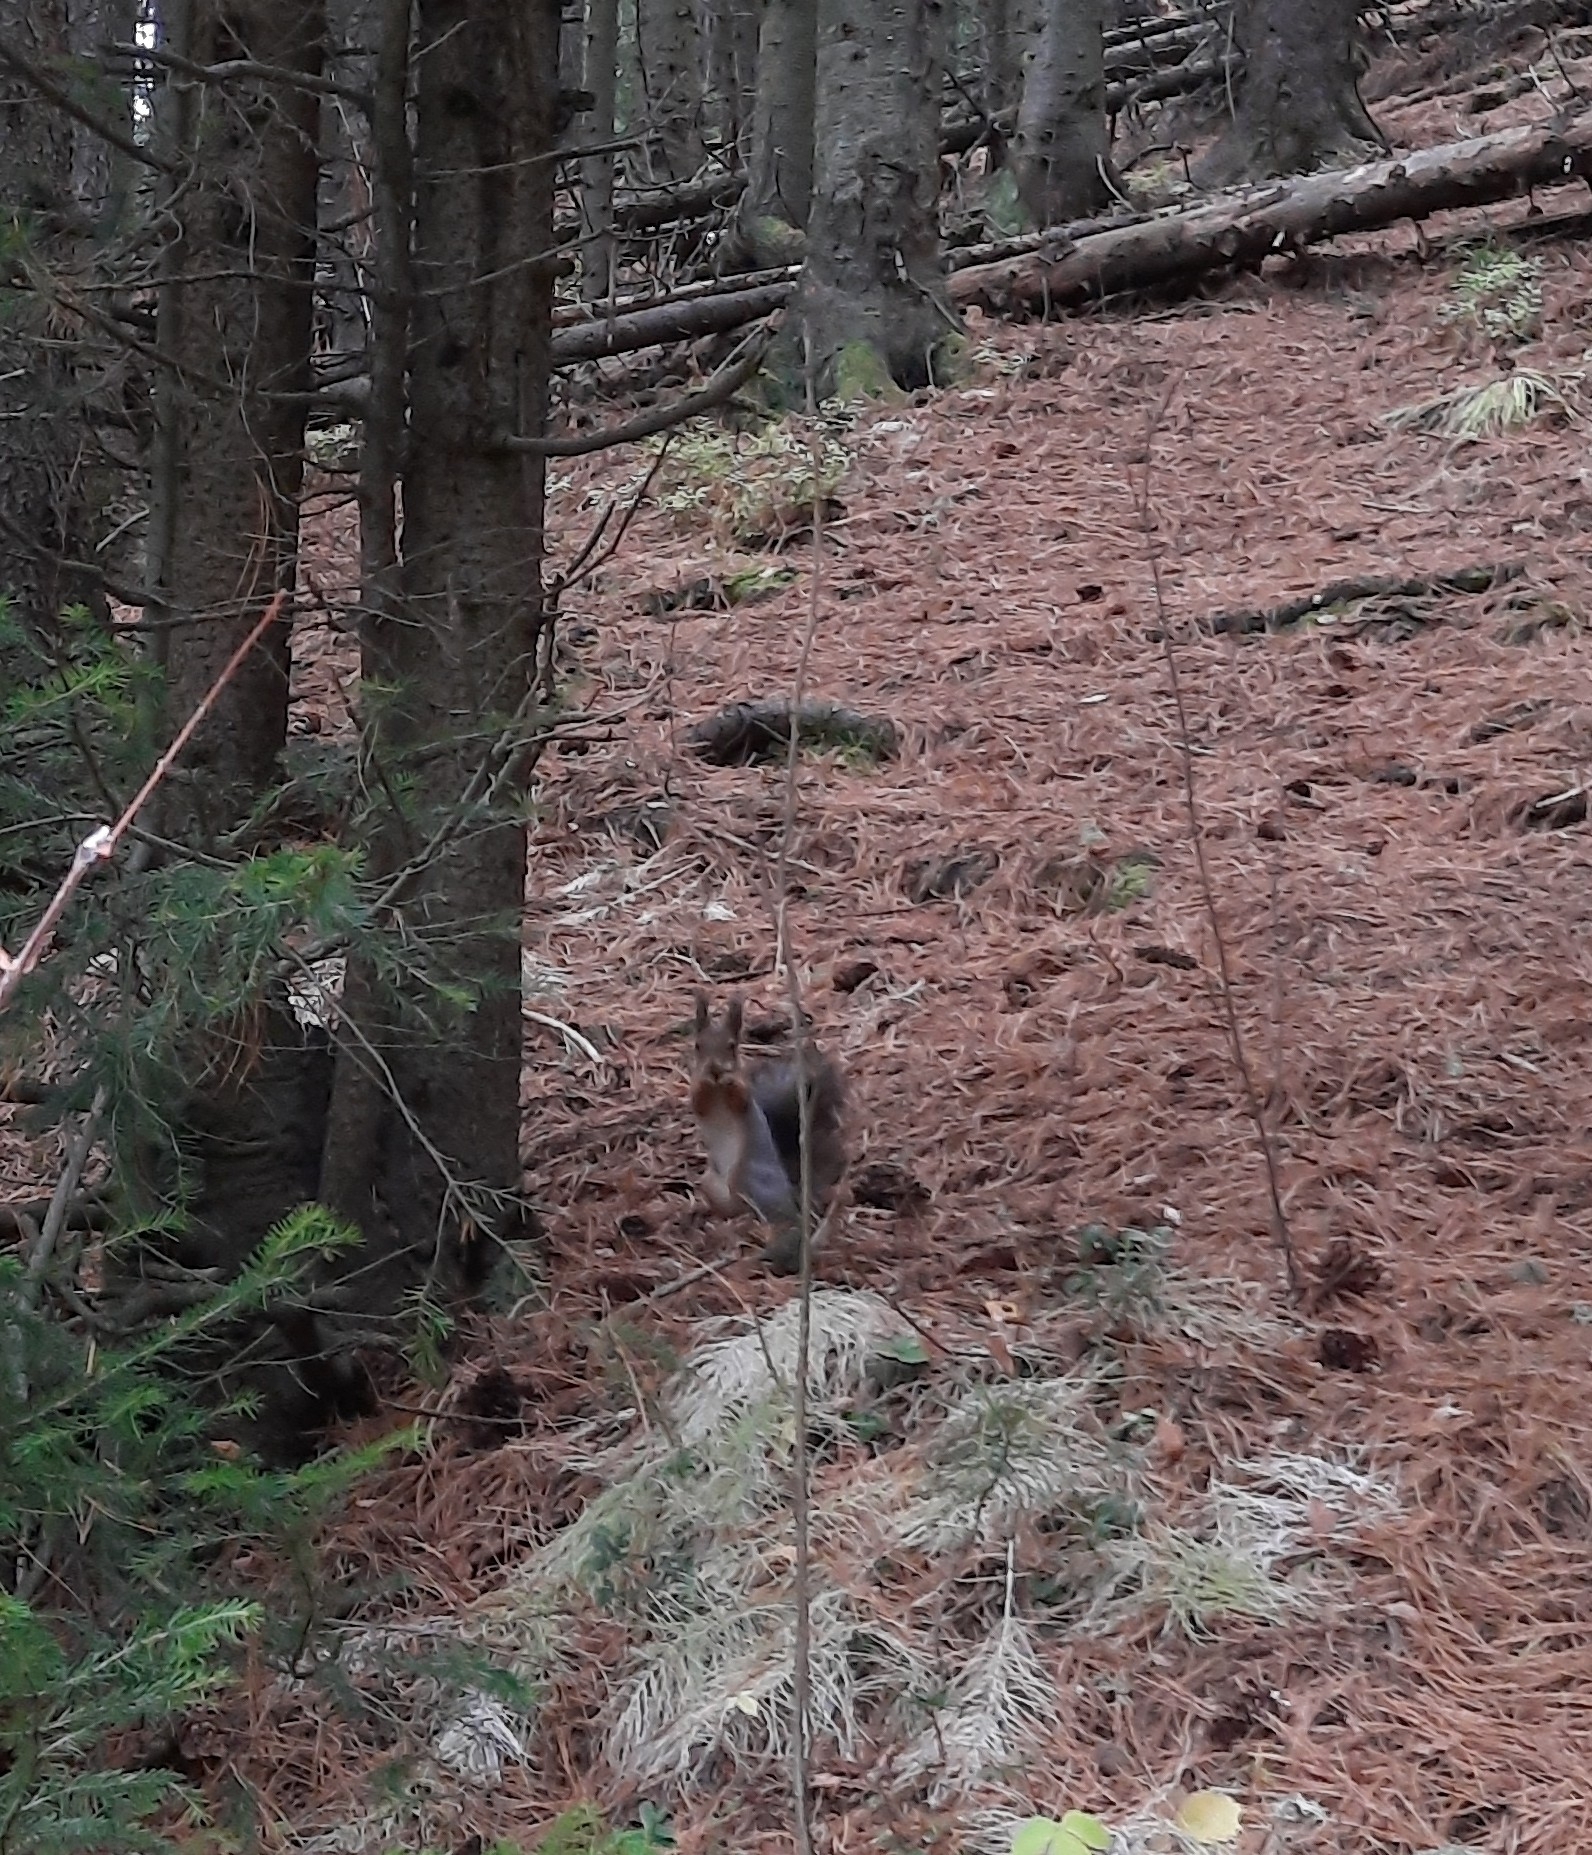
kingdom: Animalia
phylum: Chordata
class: Mammalia
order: Rodentia
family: Sciuridae
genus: Sciurus
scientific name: Sciurus vulgaris
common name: Eurasian red squirrel
